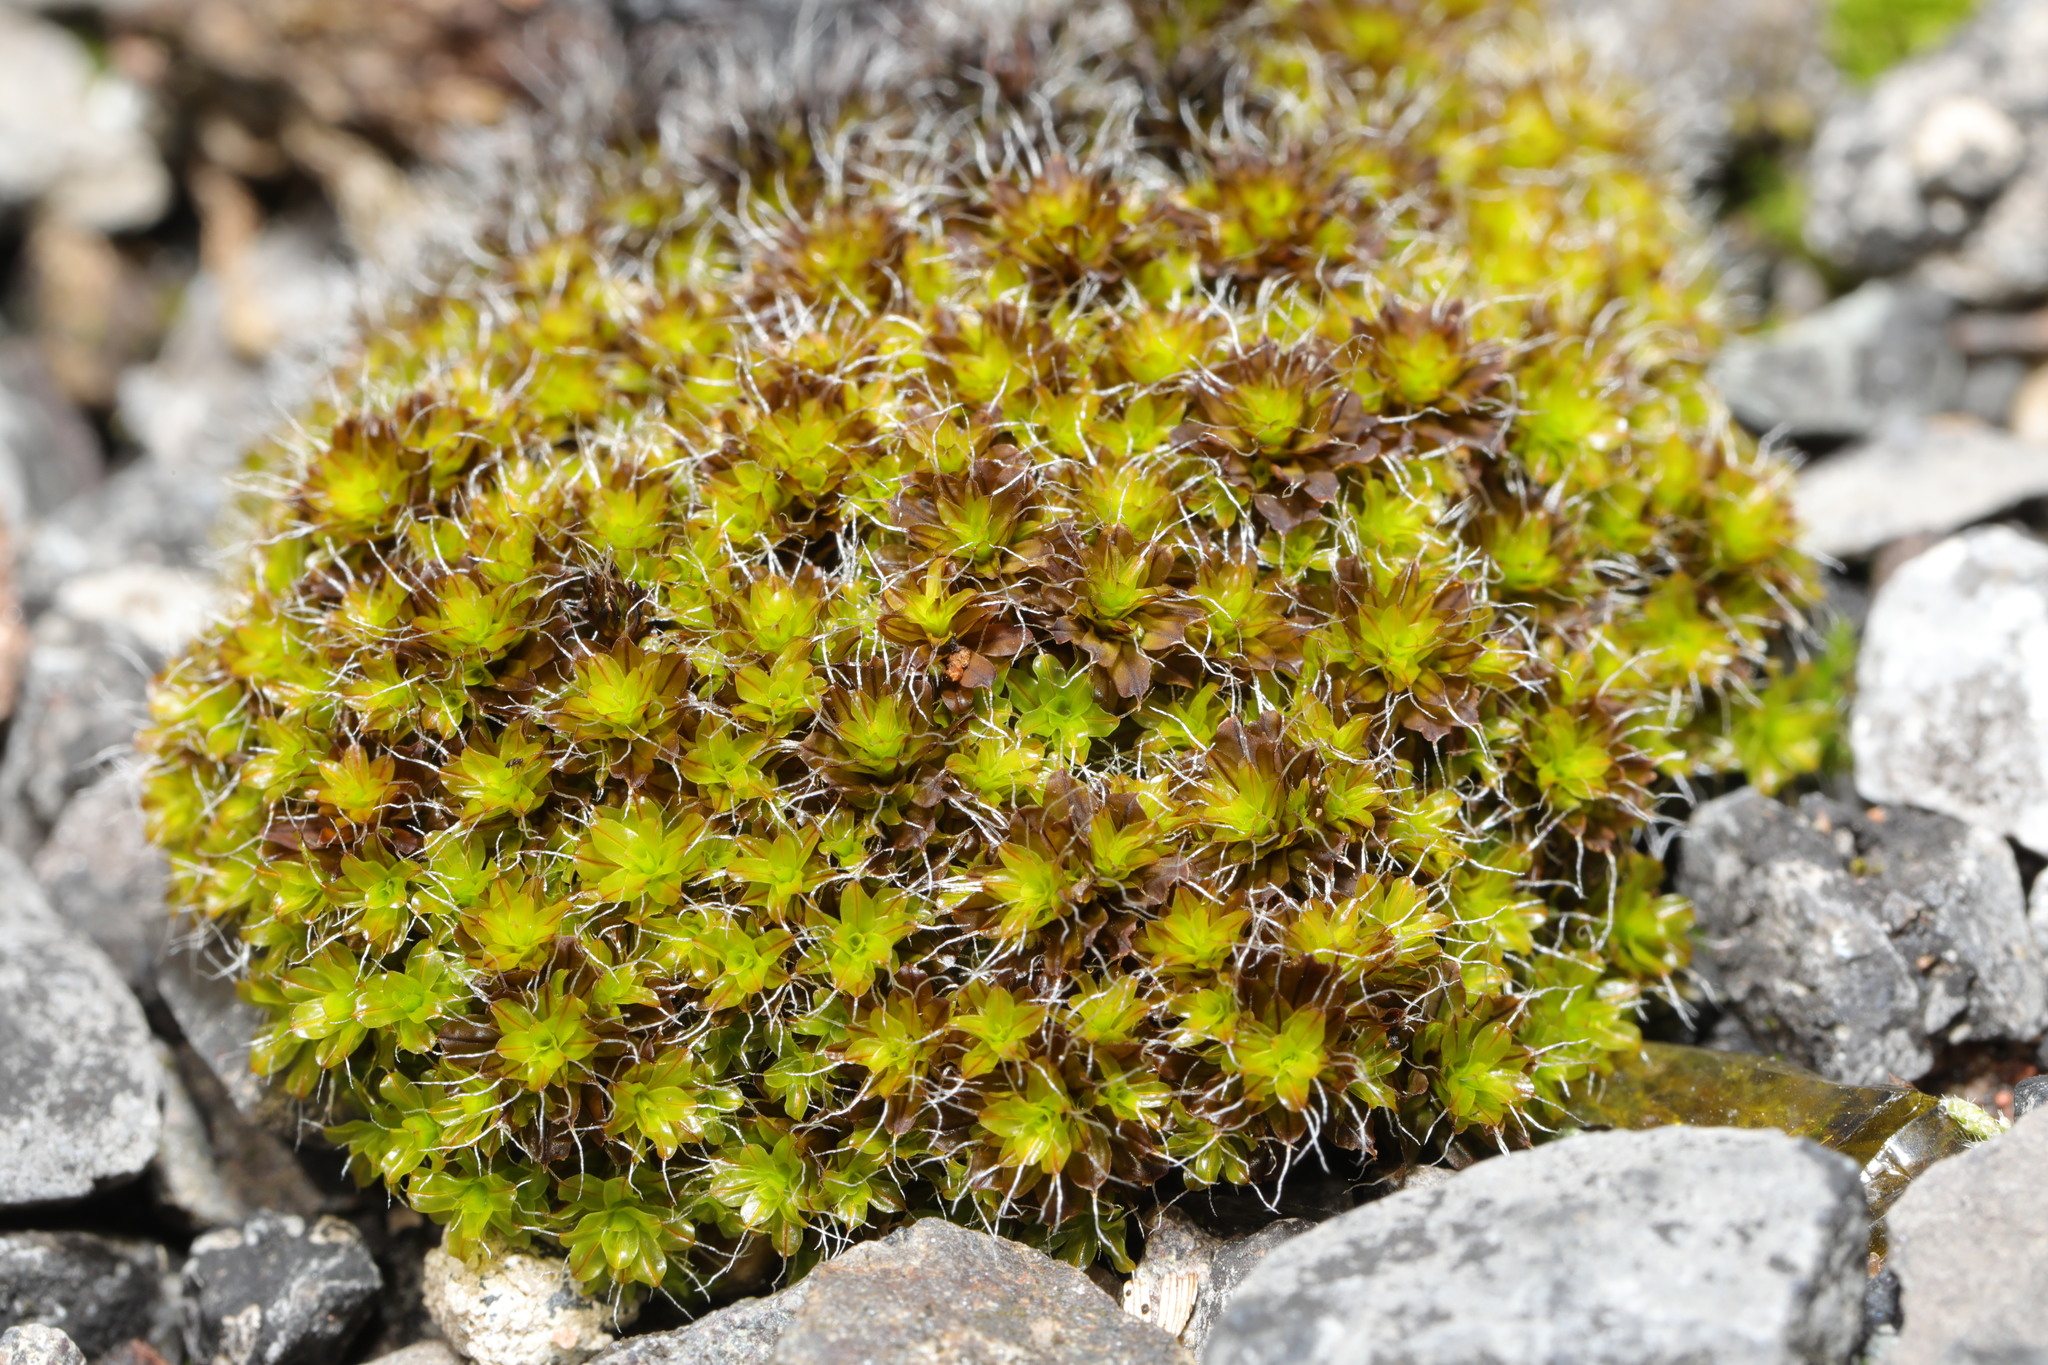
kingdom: Plantae
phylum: Bryophyta
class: Bryopsida
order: Pottiales
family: Pottiaceae
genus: Syntrichia
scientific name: Syntrichia montana
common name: Intermediate screw-moss
